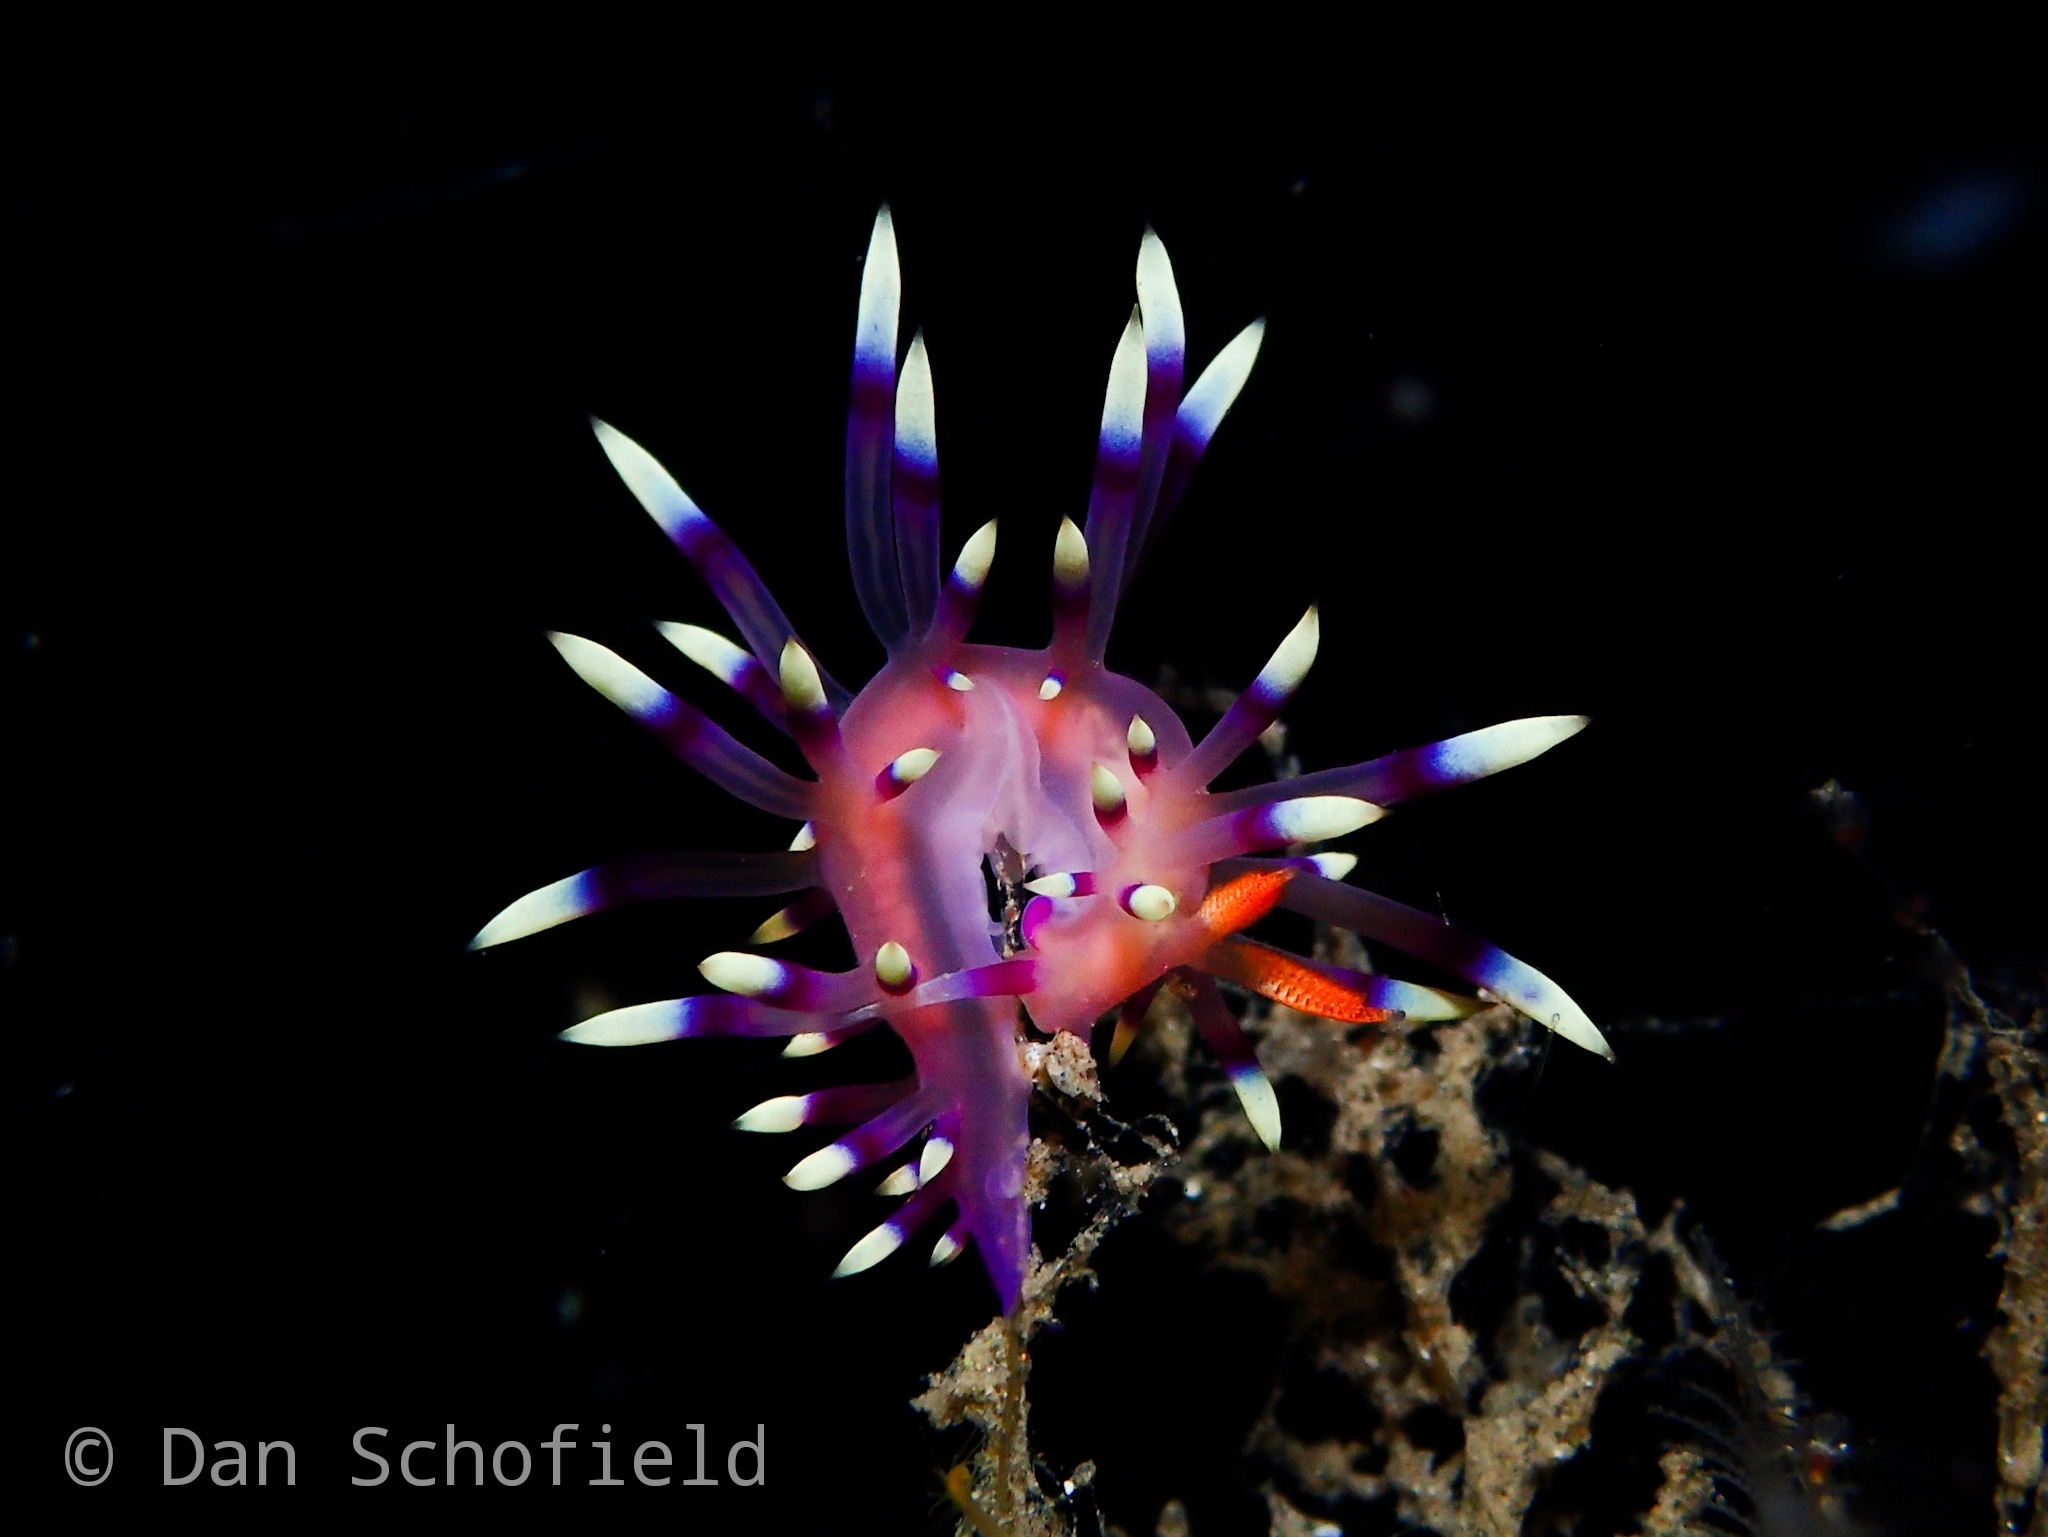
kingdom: Animalia
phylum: Mollusca
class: Gastropoda
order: Nudibranchia
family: Flabellinidae
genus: Coryphellina
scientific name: Coryphellina exoptata
